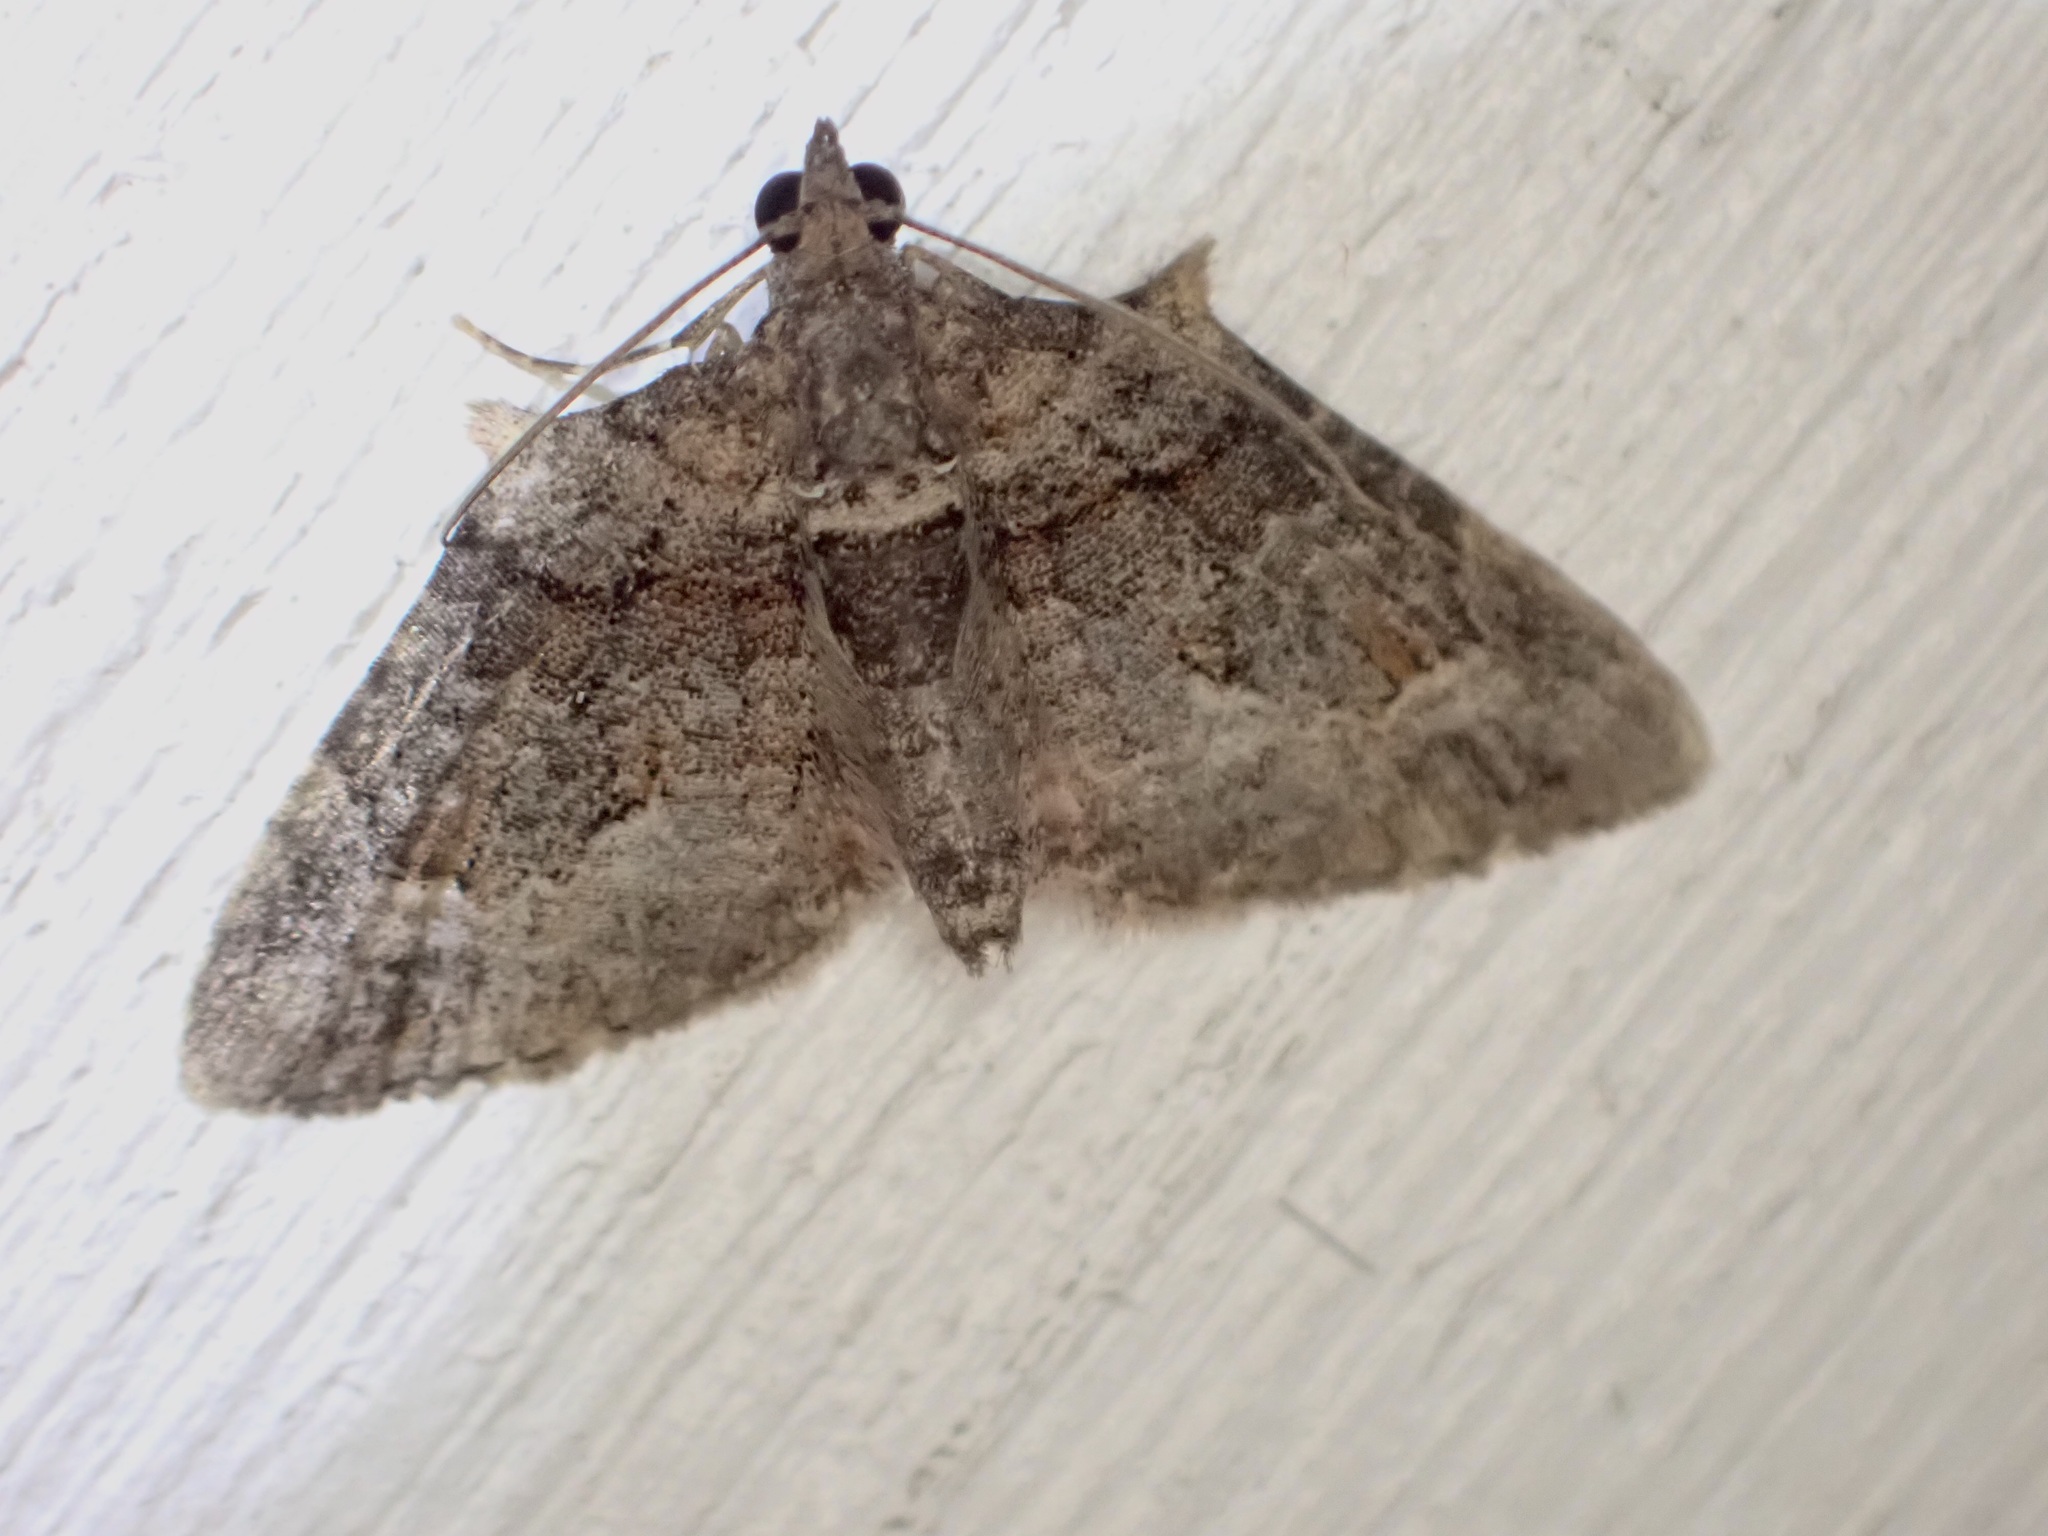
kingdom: Animalia
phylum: Arthropoda
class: Insecta
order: Lepidoptera
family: Geometridae
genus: Phrissogonus
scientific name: Phrissogonus laticostata
